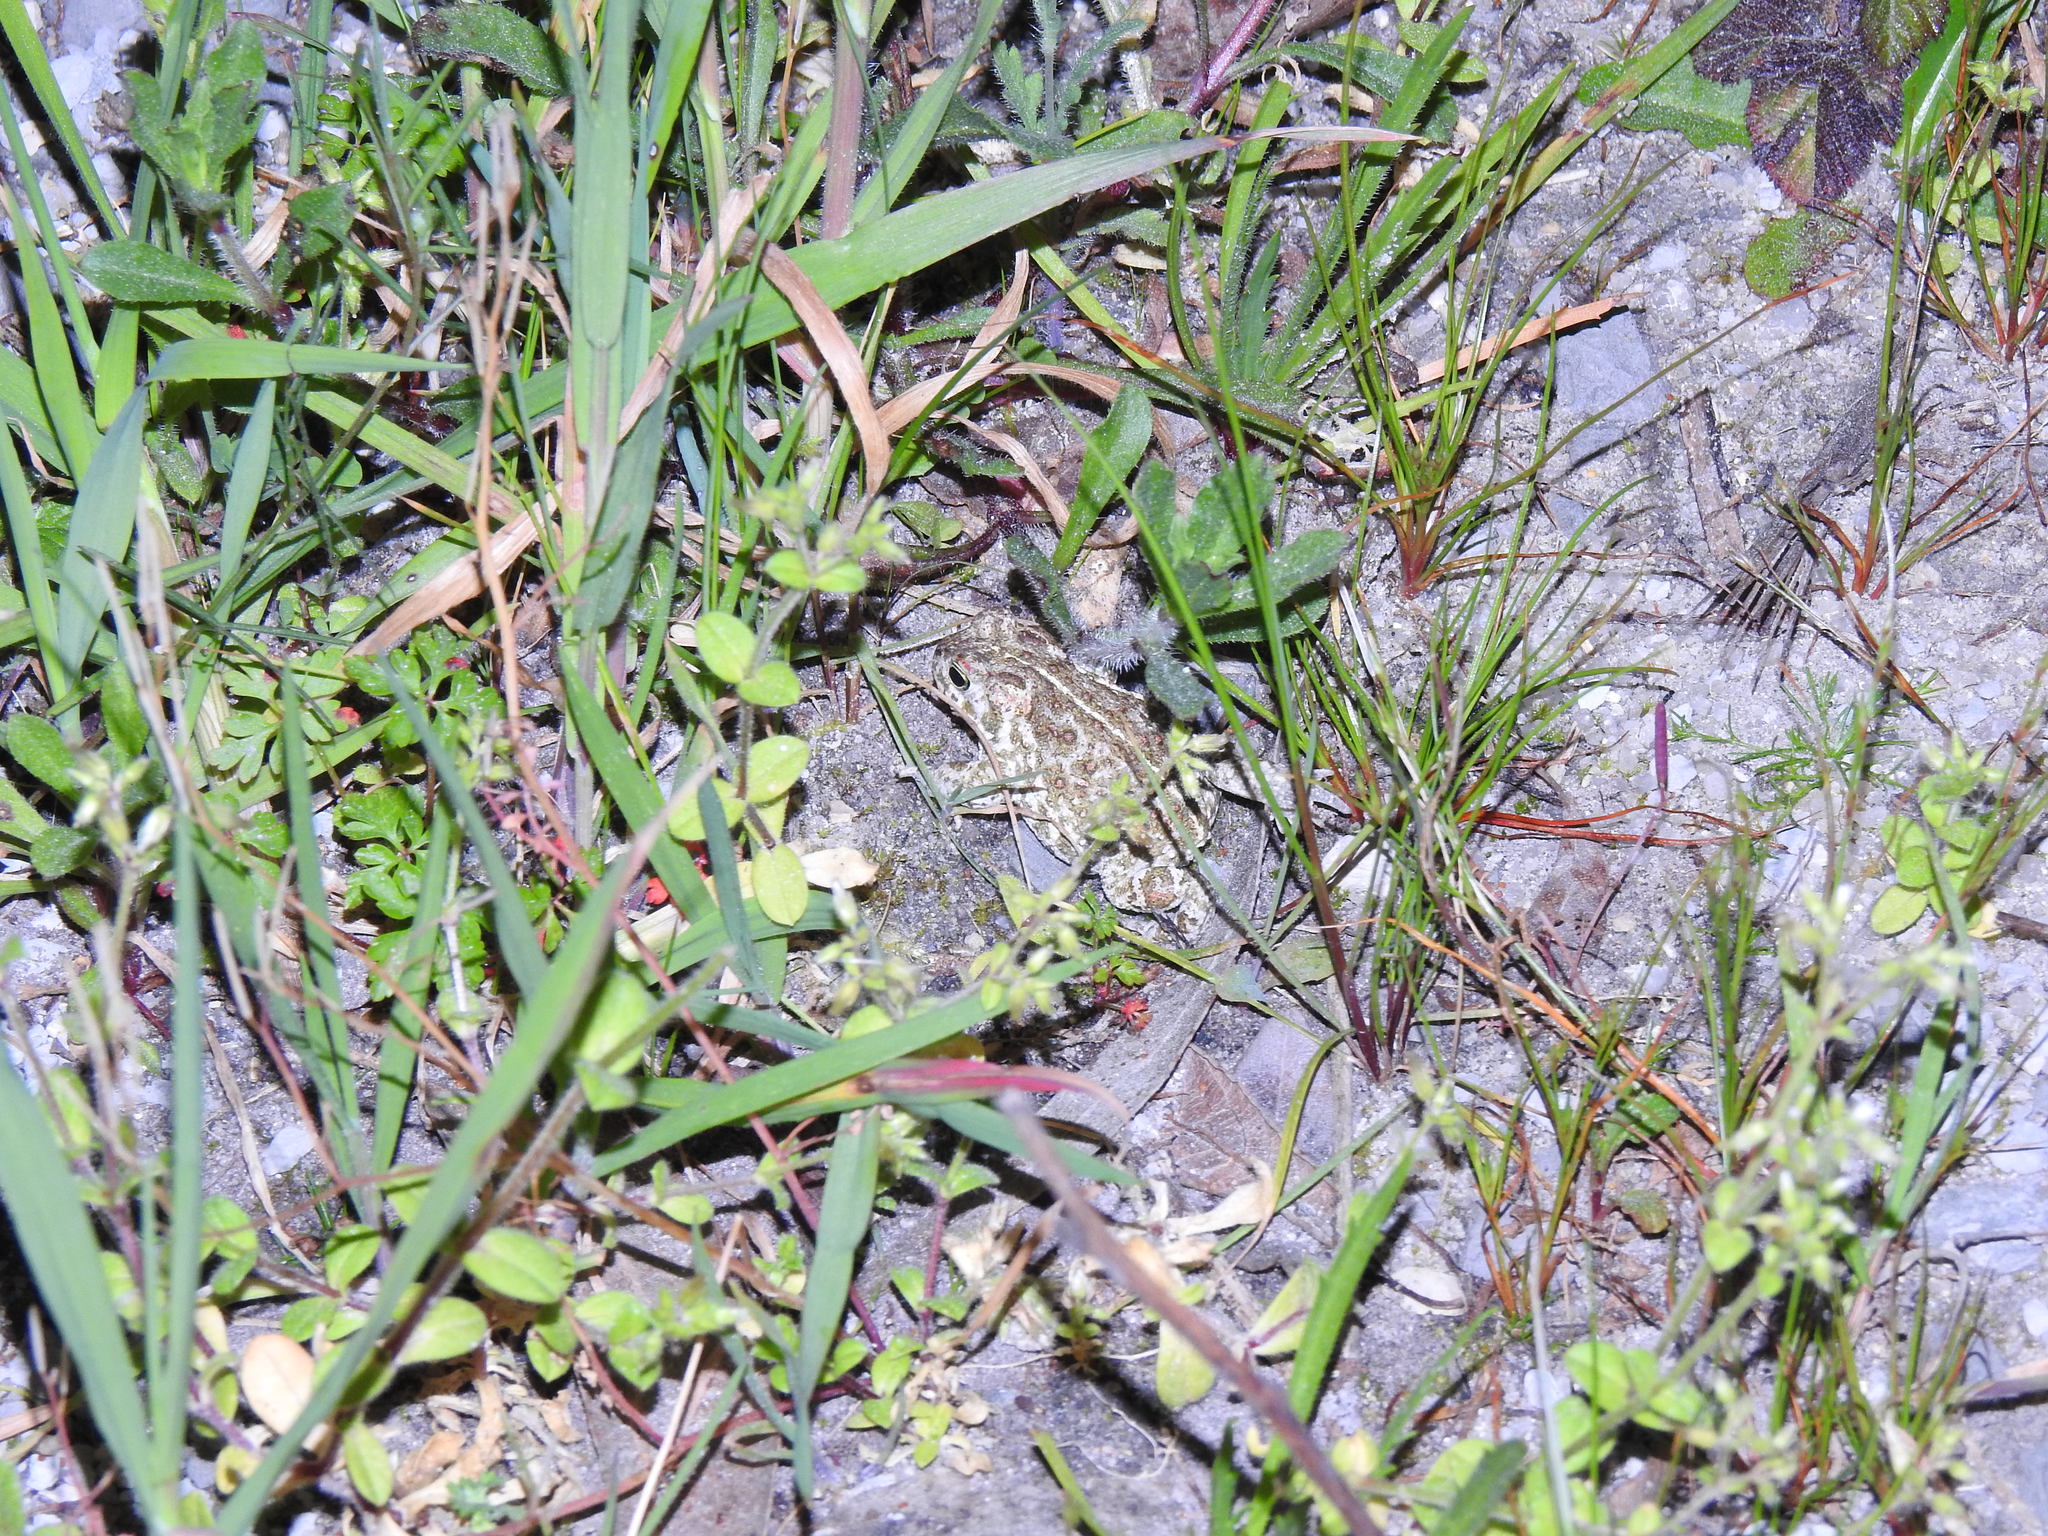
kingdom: Animalia
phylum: Chordata
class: Amphibia
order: Anura
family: Bufonidae
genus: Epidalea
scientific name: Epidalea calamita
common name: Natterjack toad
